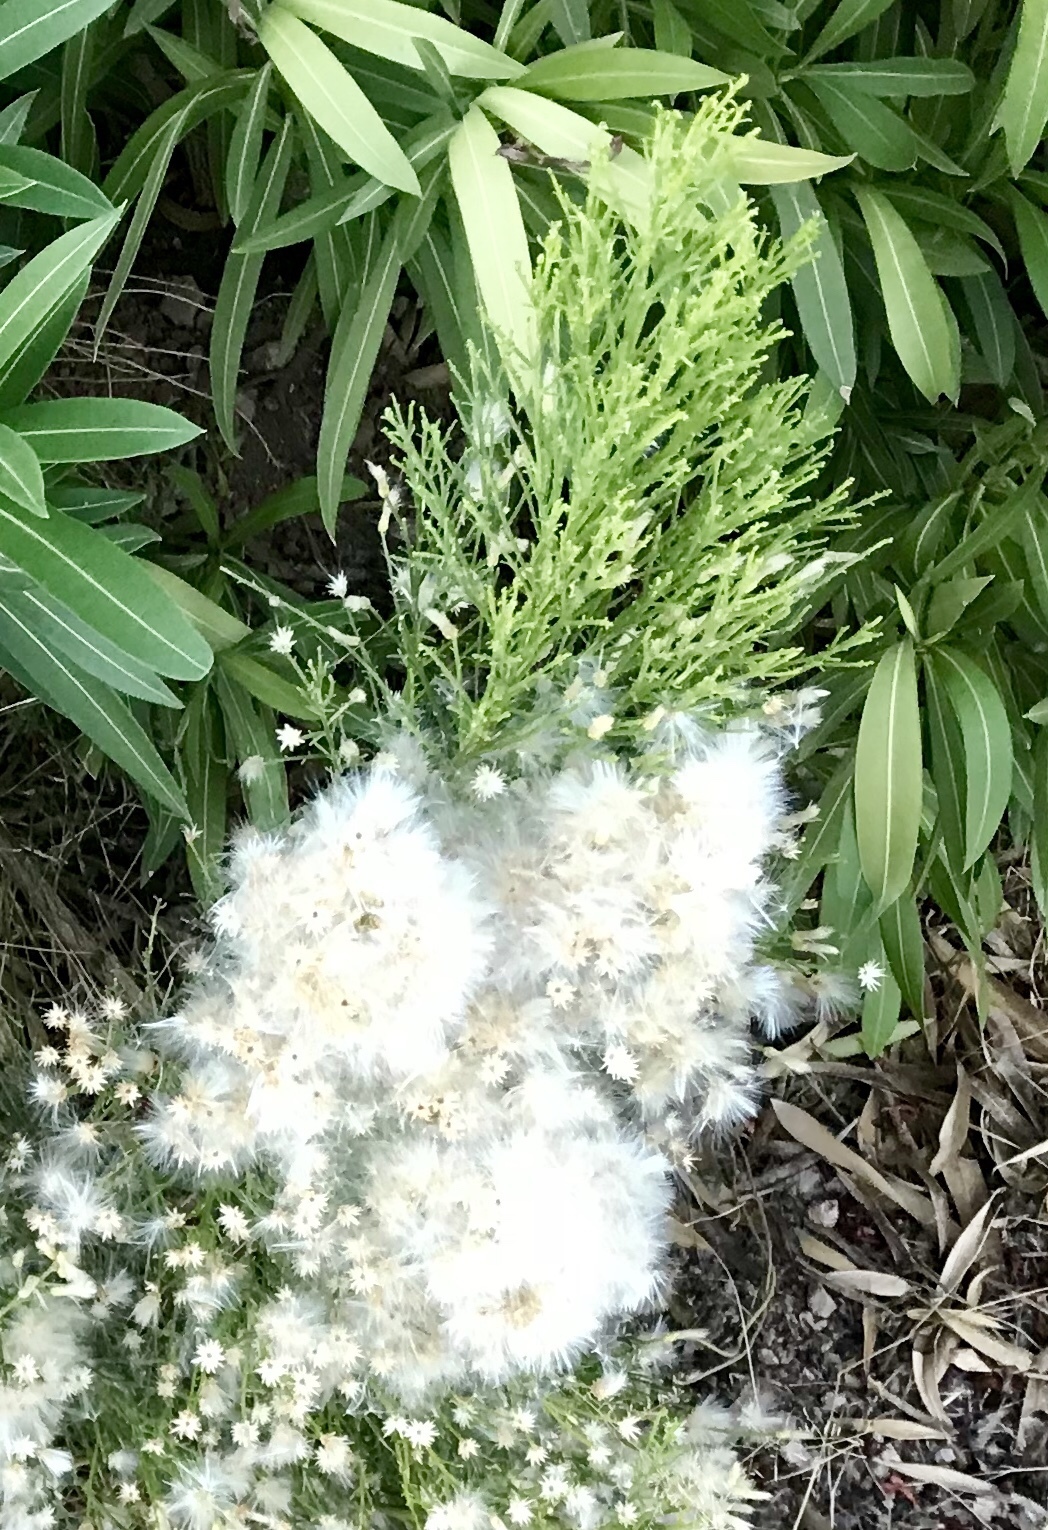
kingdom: Plantae
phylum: Tracheophyta
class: Magnoliopsida
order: Asterales
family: Asteraceae
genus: Baccharis
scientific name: Baccharis sarothroides
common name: Desert-broom
